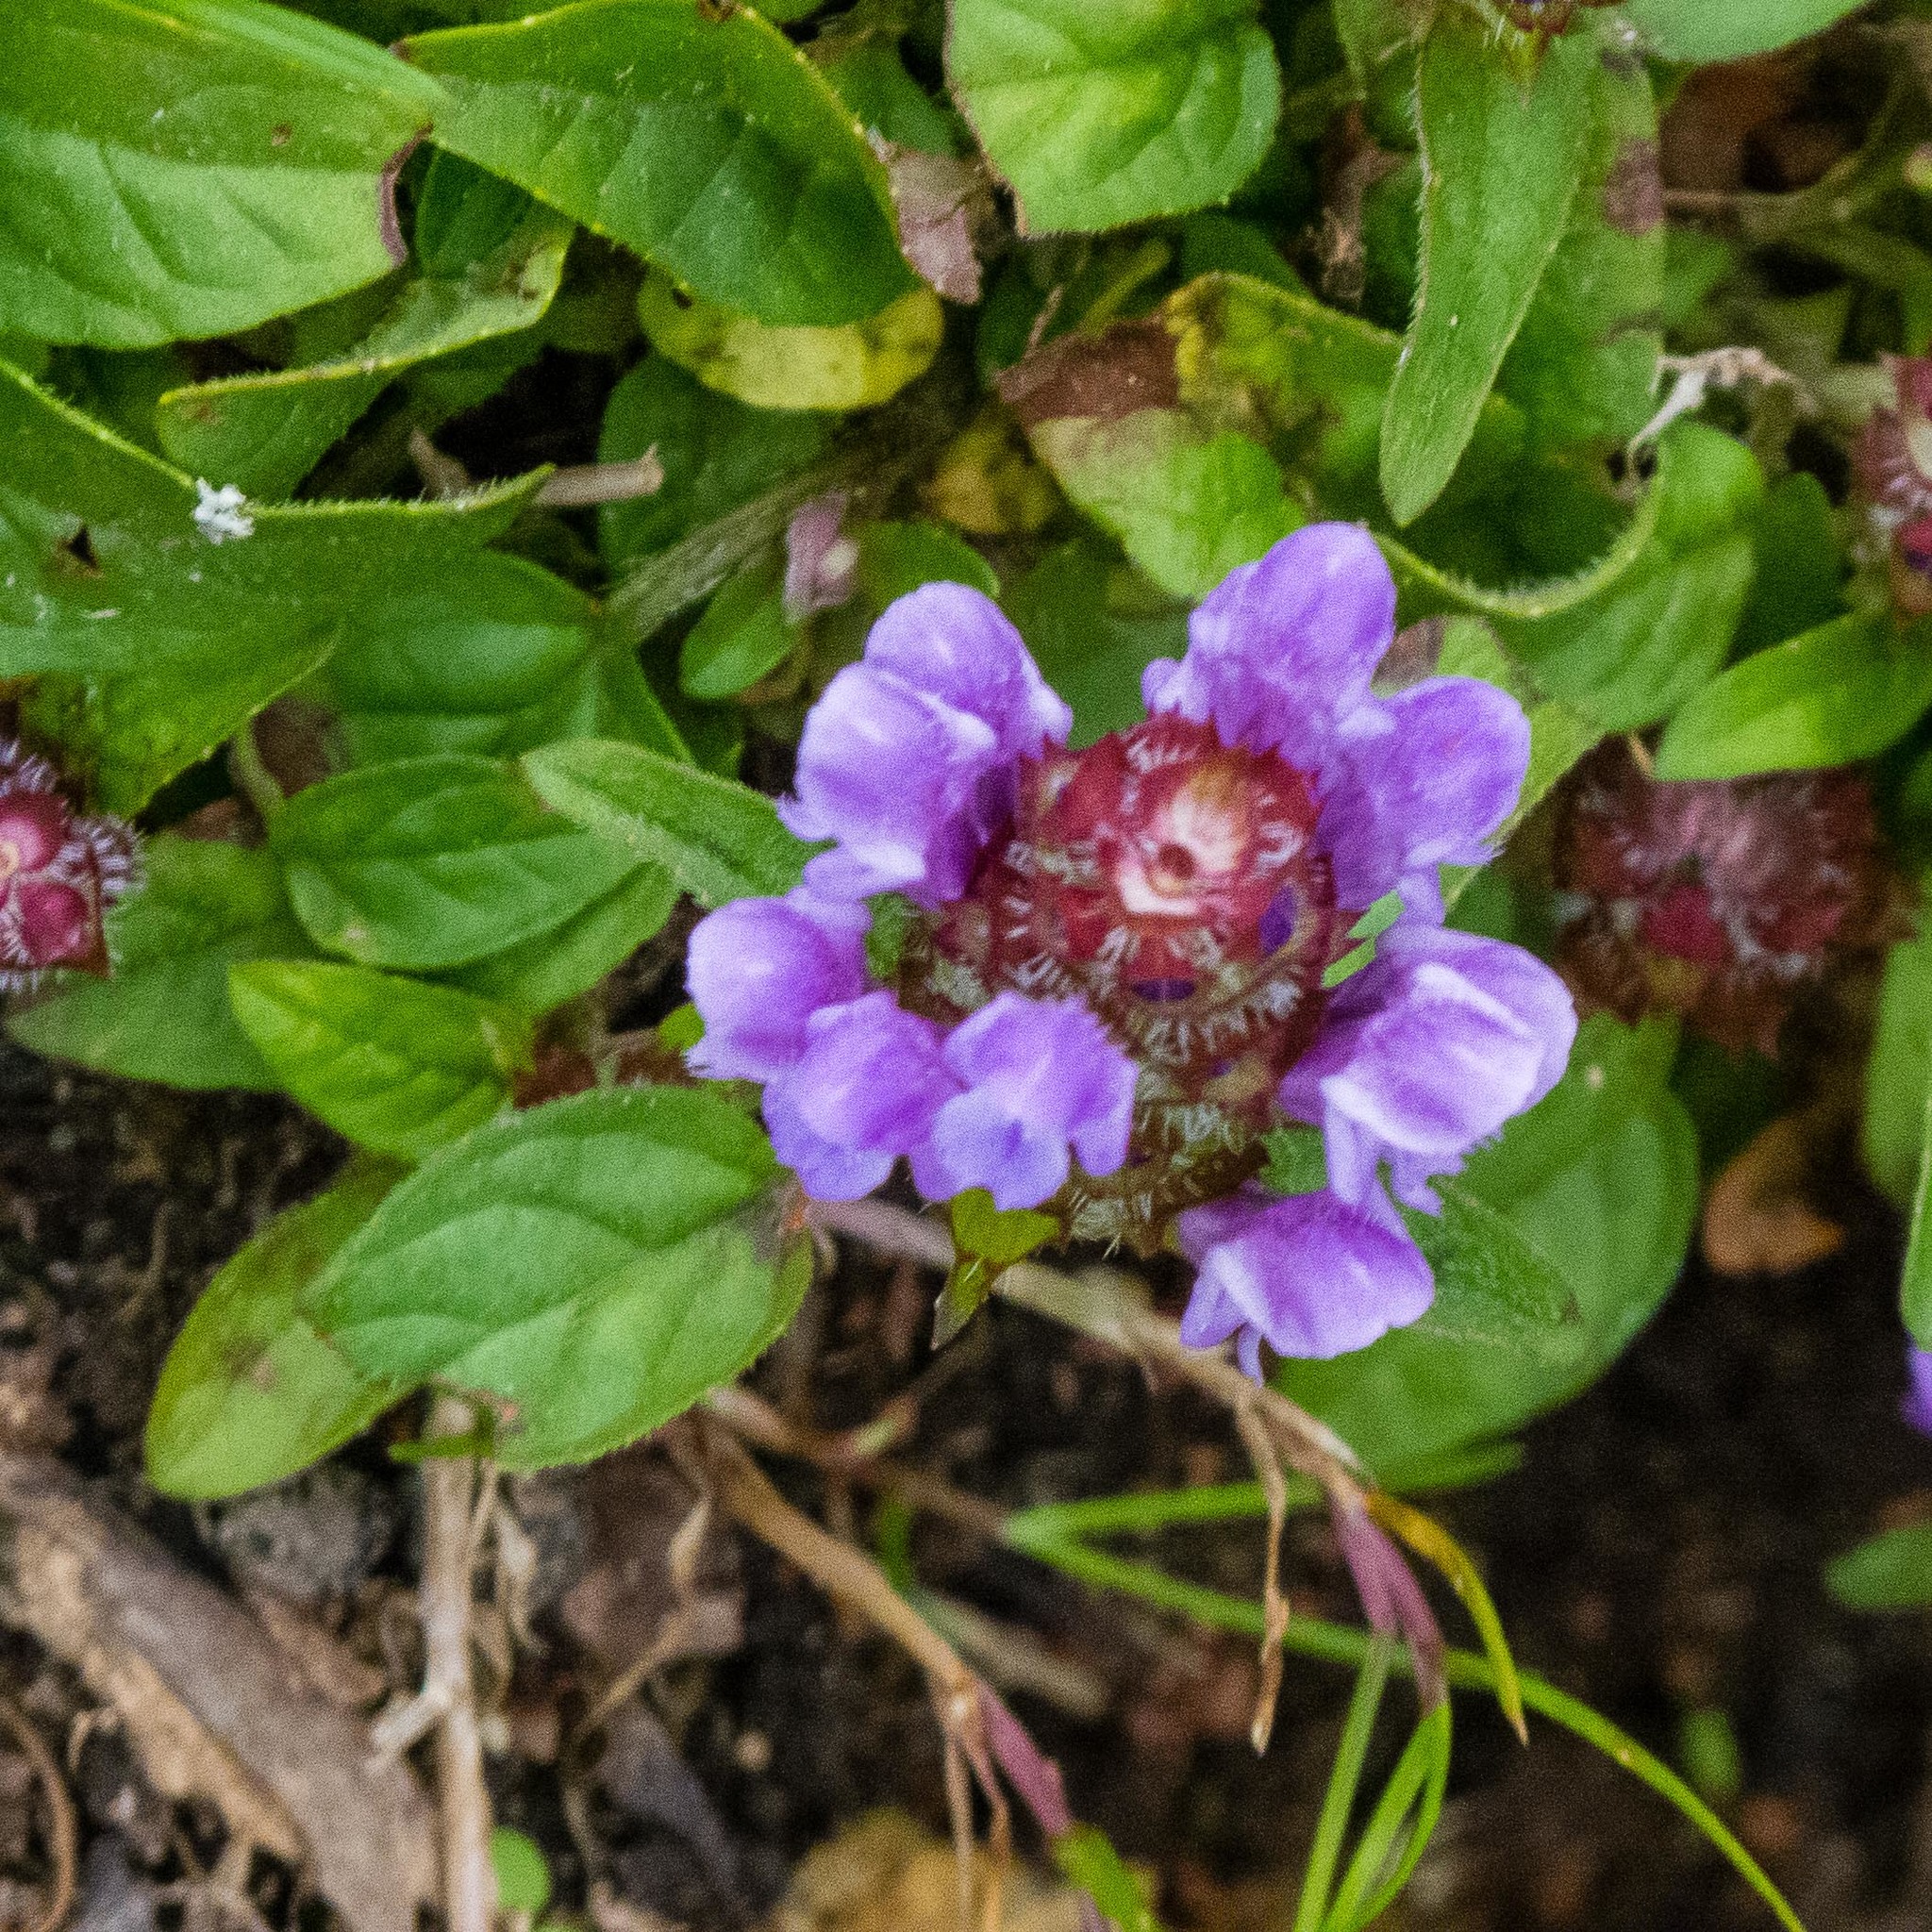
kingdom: Plantae
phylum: Tracheophyta
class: Magnoliopsida
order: Lamiales
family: Lamiaceae
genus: Prunella
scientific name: Prunella vulgaris
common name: Heal-all
